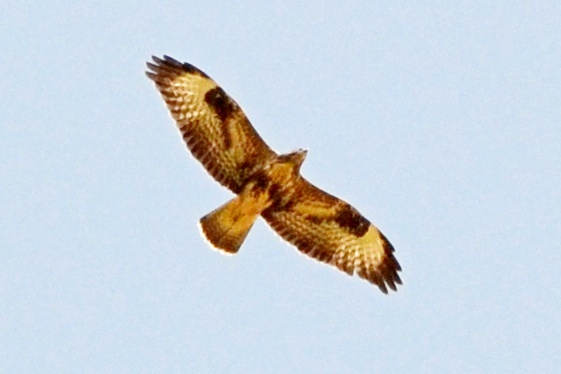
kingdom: Animalia
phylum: Chordata
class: Aves
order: Accipitriformes
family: Accipitridae
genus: Buteo
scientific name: Buteo buteo
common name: Common buzzard
